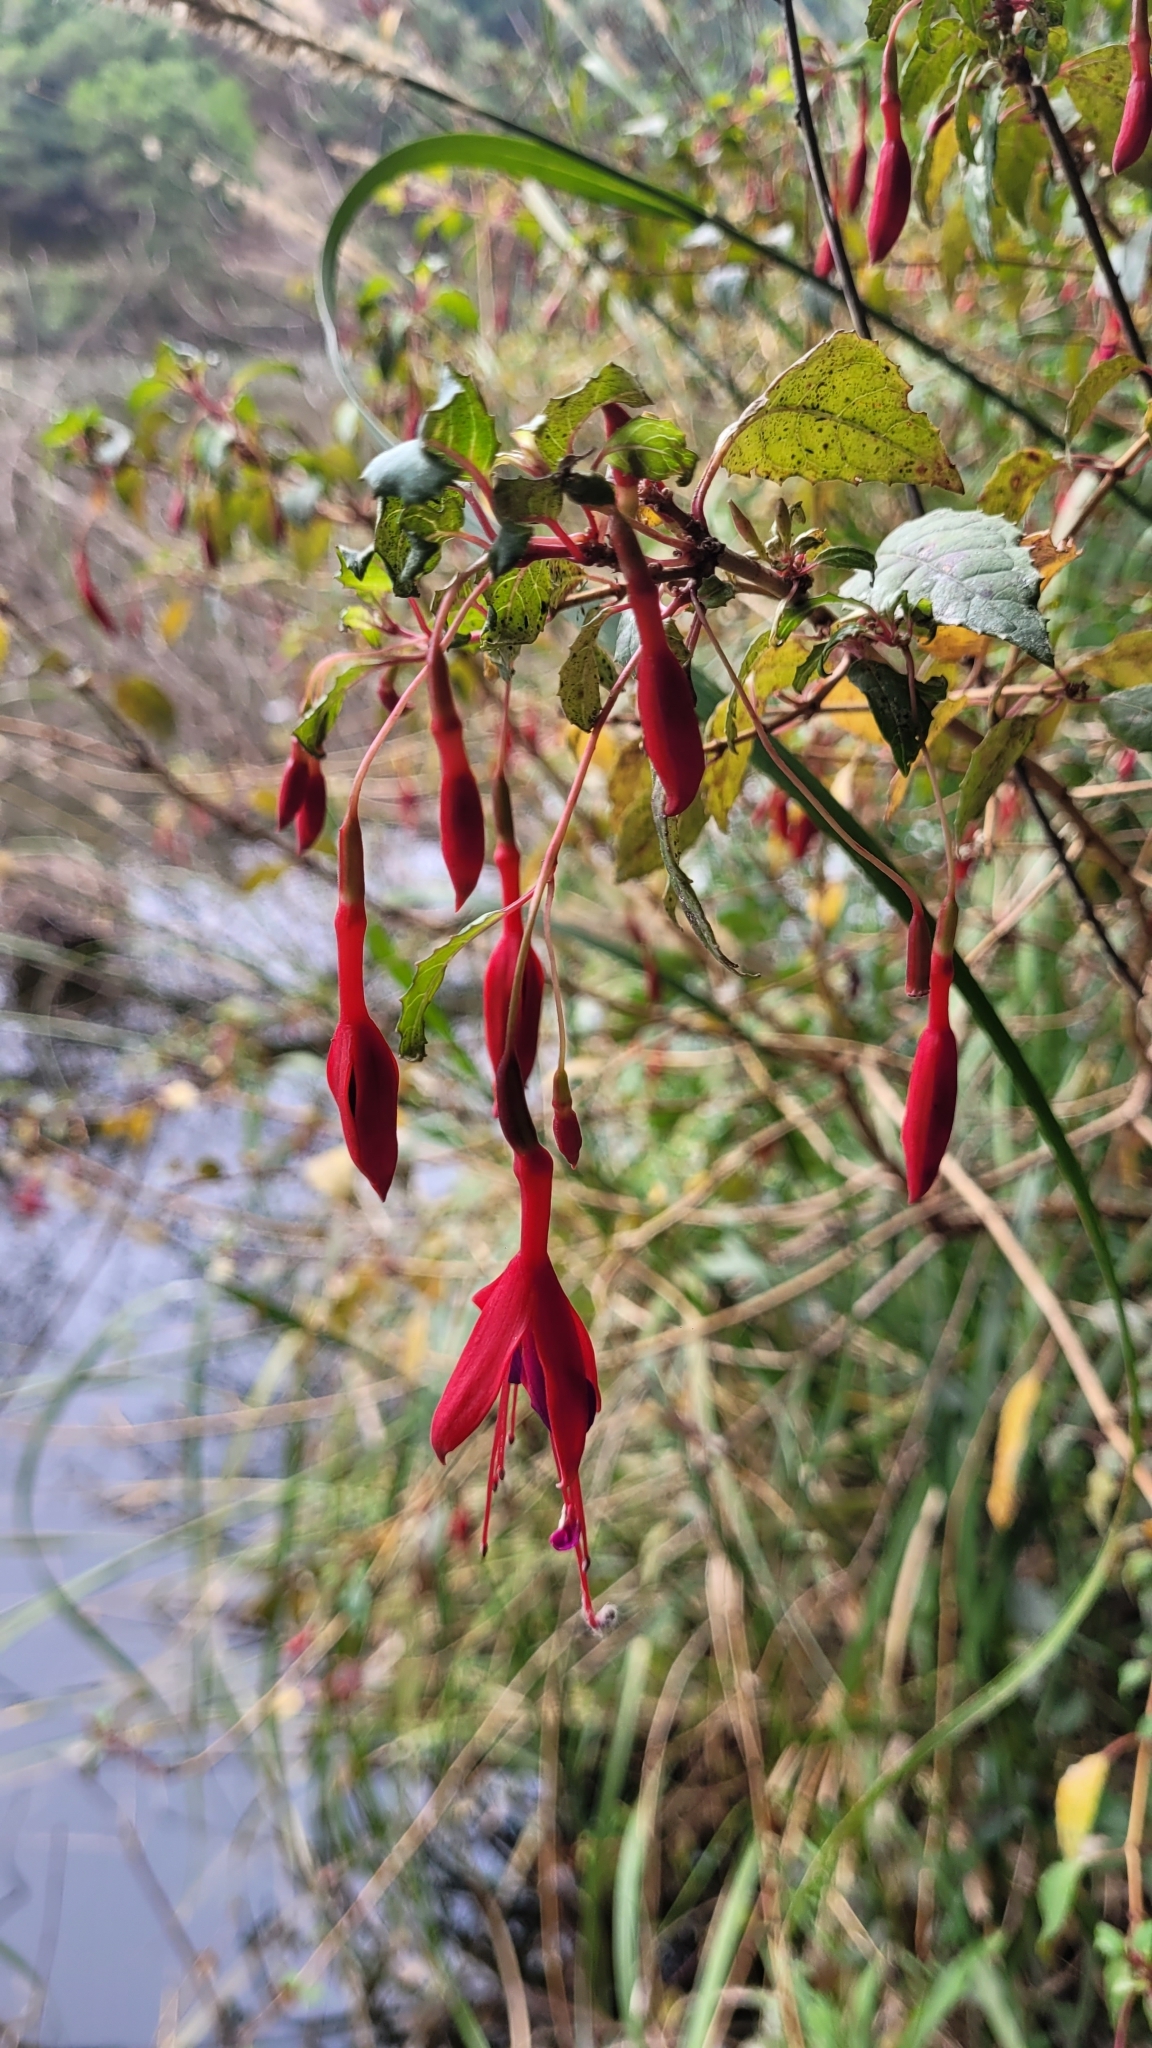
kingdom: Plantae
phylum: Tracheophyta
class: Magnoliopsida
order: Myrtales
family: Onagraceae
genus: Fuchsia
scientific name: Fuchsia magellanica
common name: Hardy fuchsia
